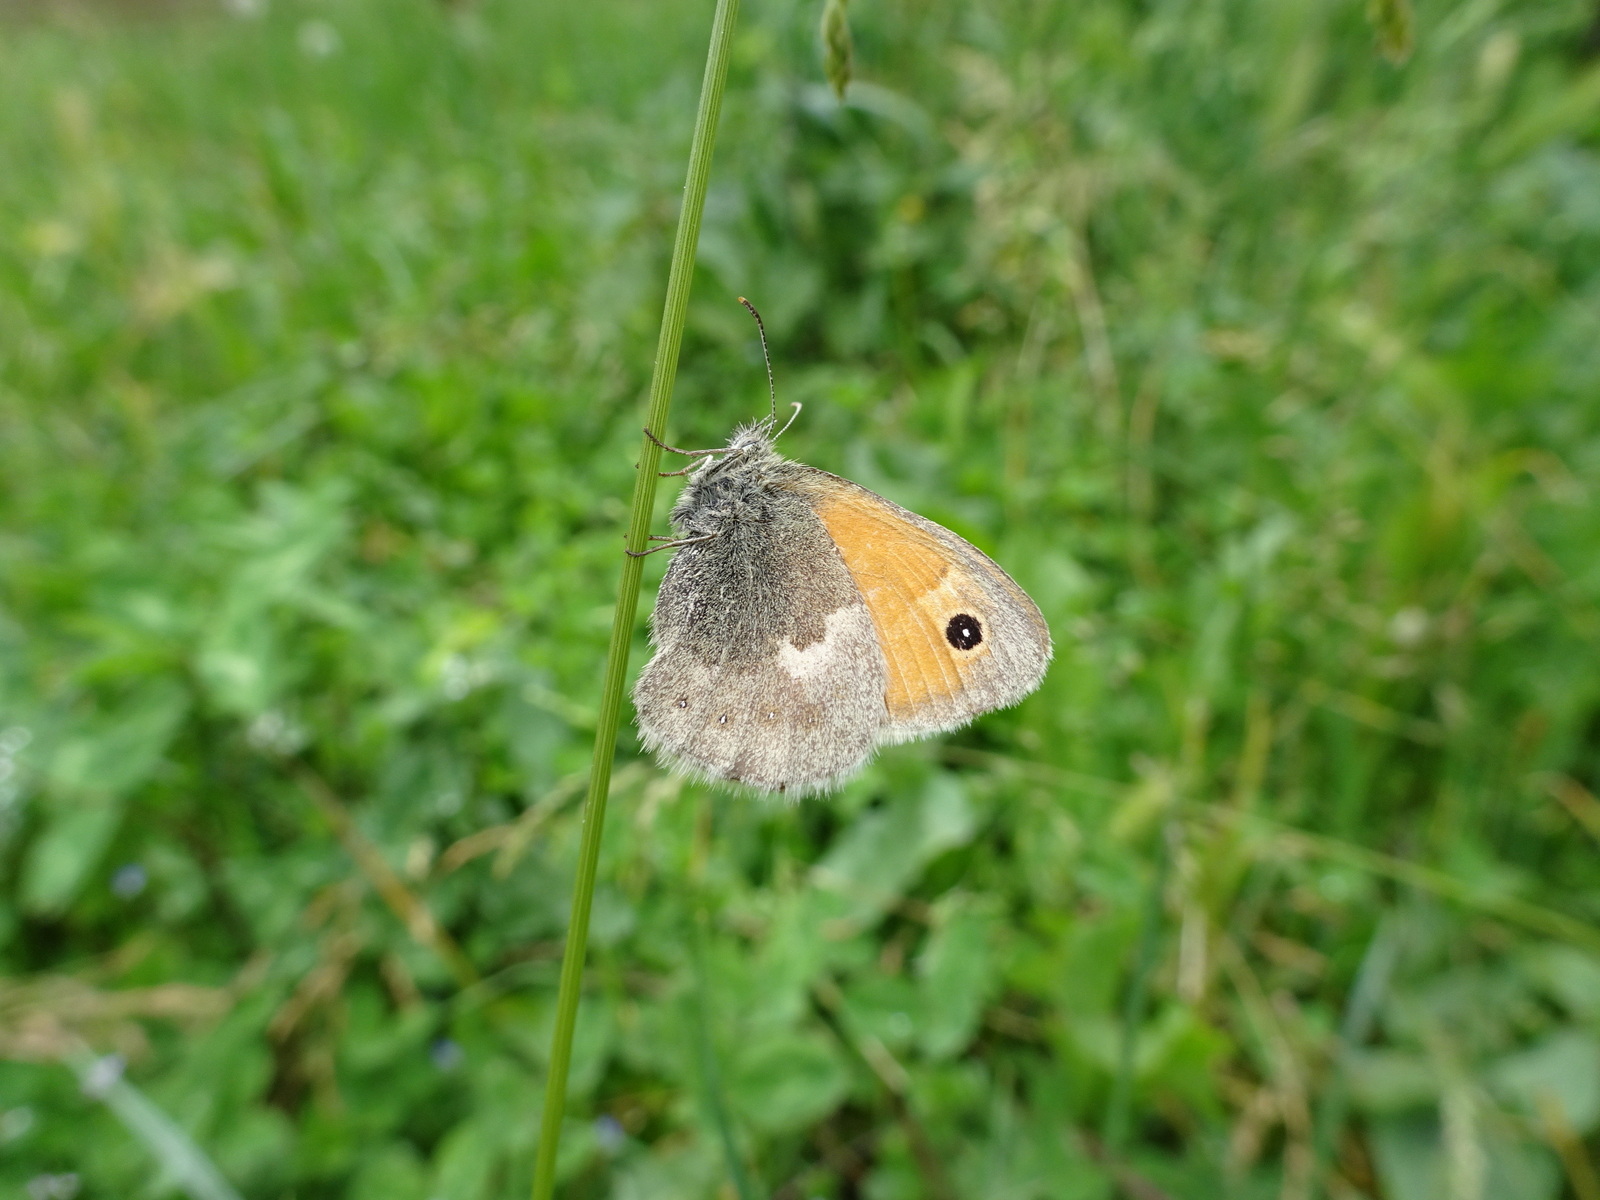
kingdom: Animalia
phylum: Arthropoda
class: Insecta
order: Lepidoptera
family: Nymphalidae
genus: Coenonympha
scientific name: Coenonympha pamphilus
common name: Small heath
